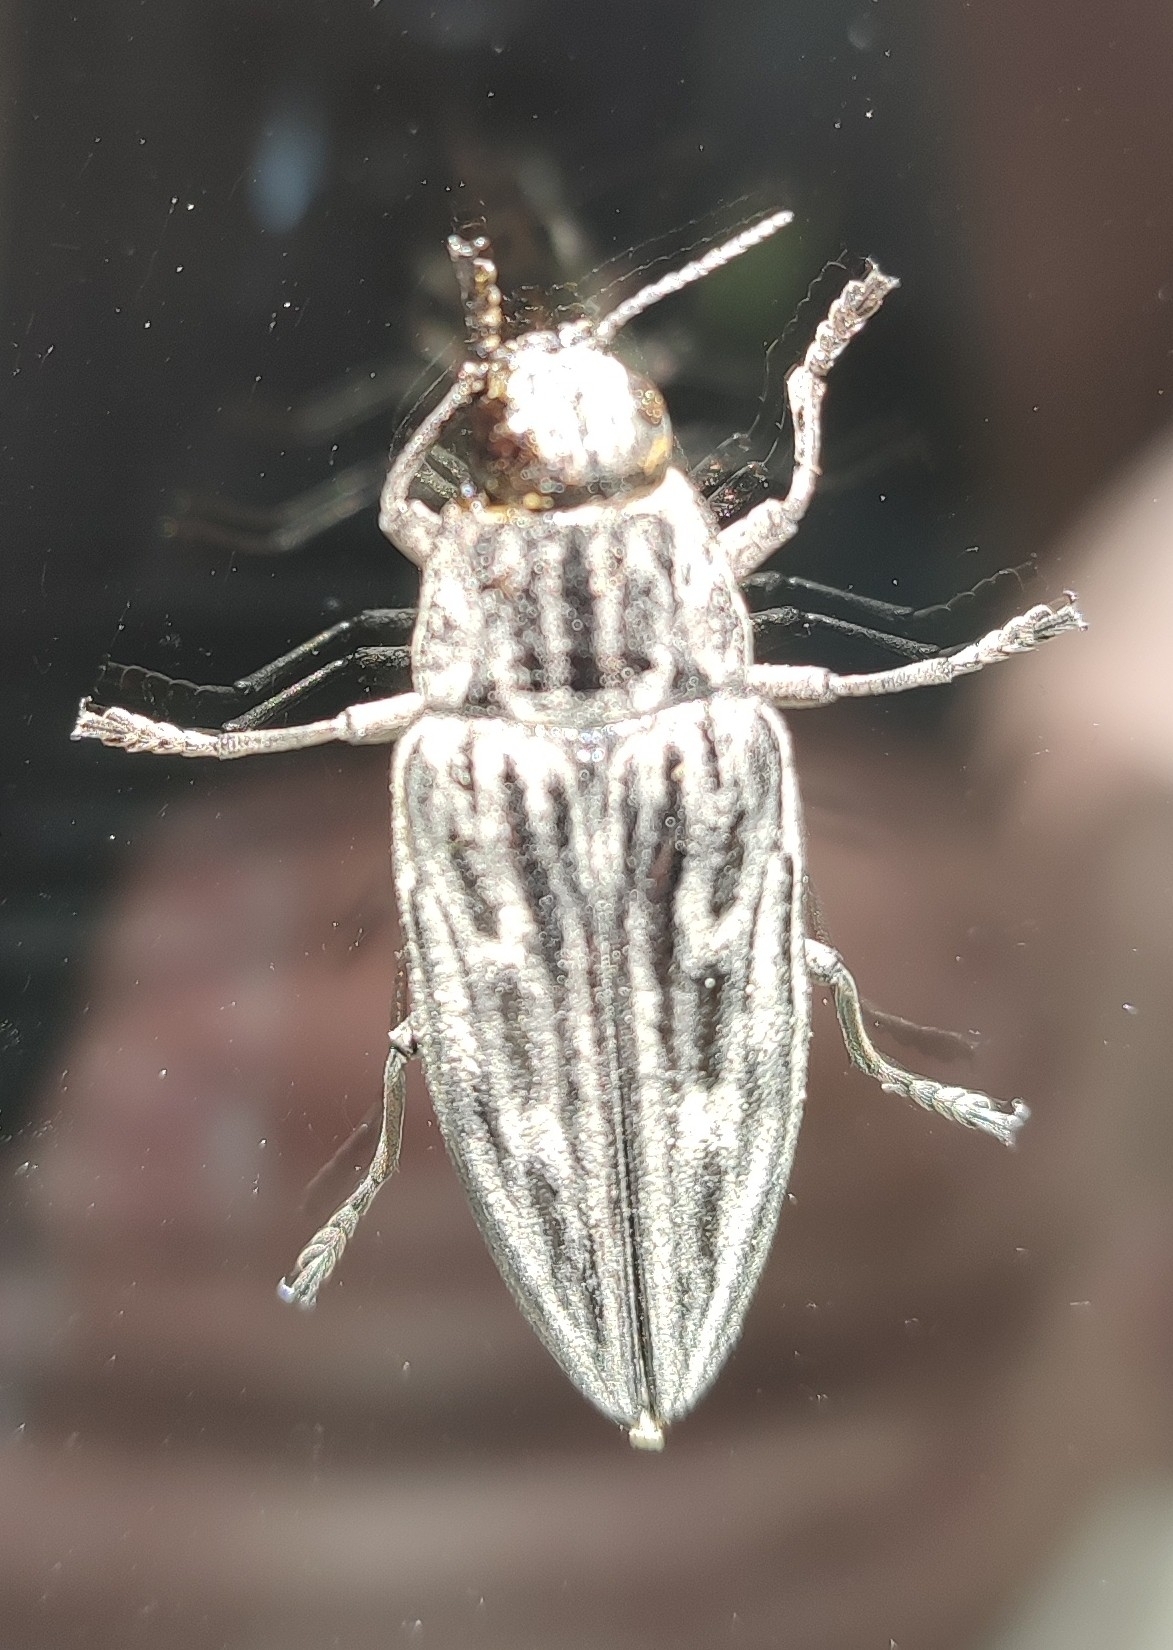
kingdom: Animalia
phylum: Arthropoda
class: Insecta
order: Coleoptera
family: Buprestidae
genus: Chalcophora
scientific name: Chalcophora mariana
